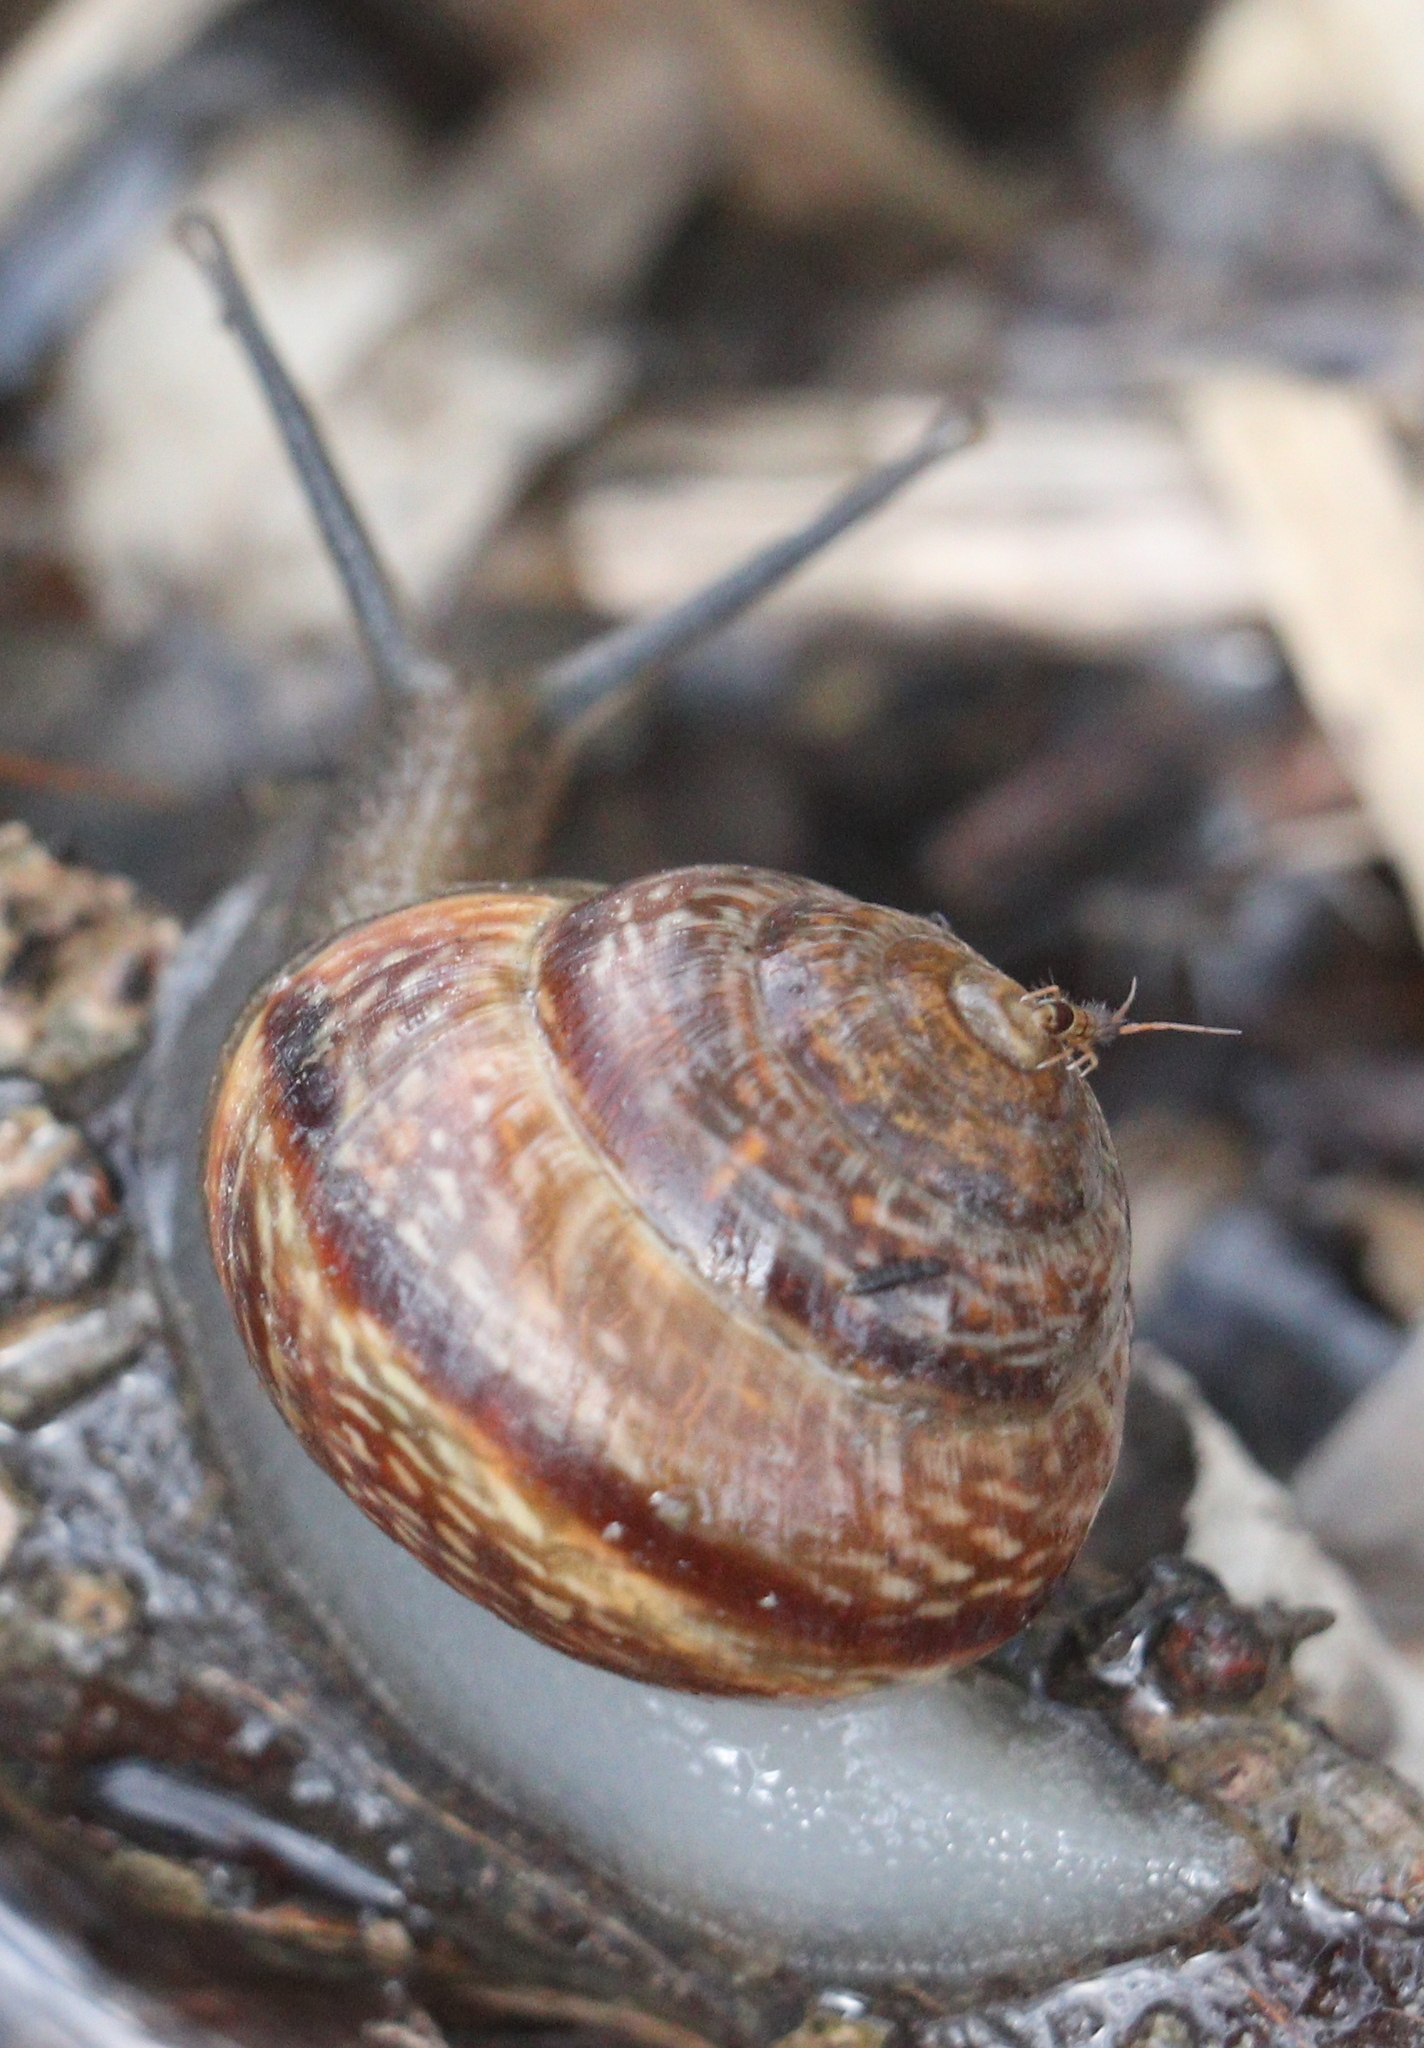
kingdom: Animalia
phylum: Mollusca
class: Gastropoda
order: Stylommatophora
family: Helicidae
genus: Arianta
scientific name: Arianta arbustorum
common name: Copse snail
